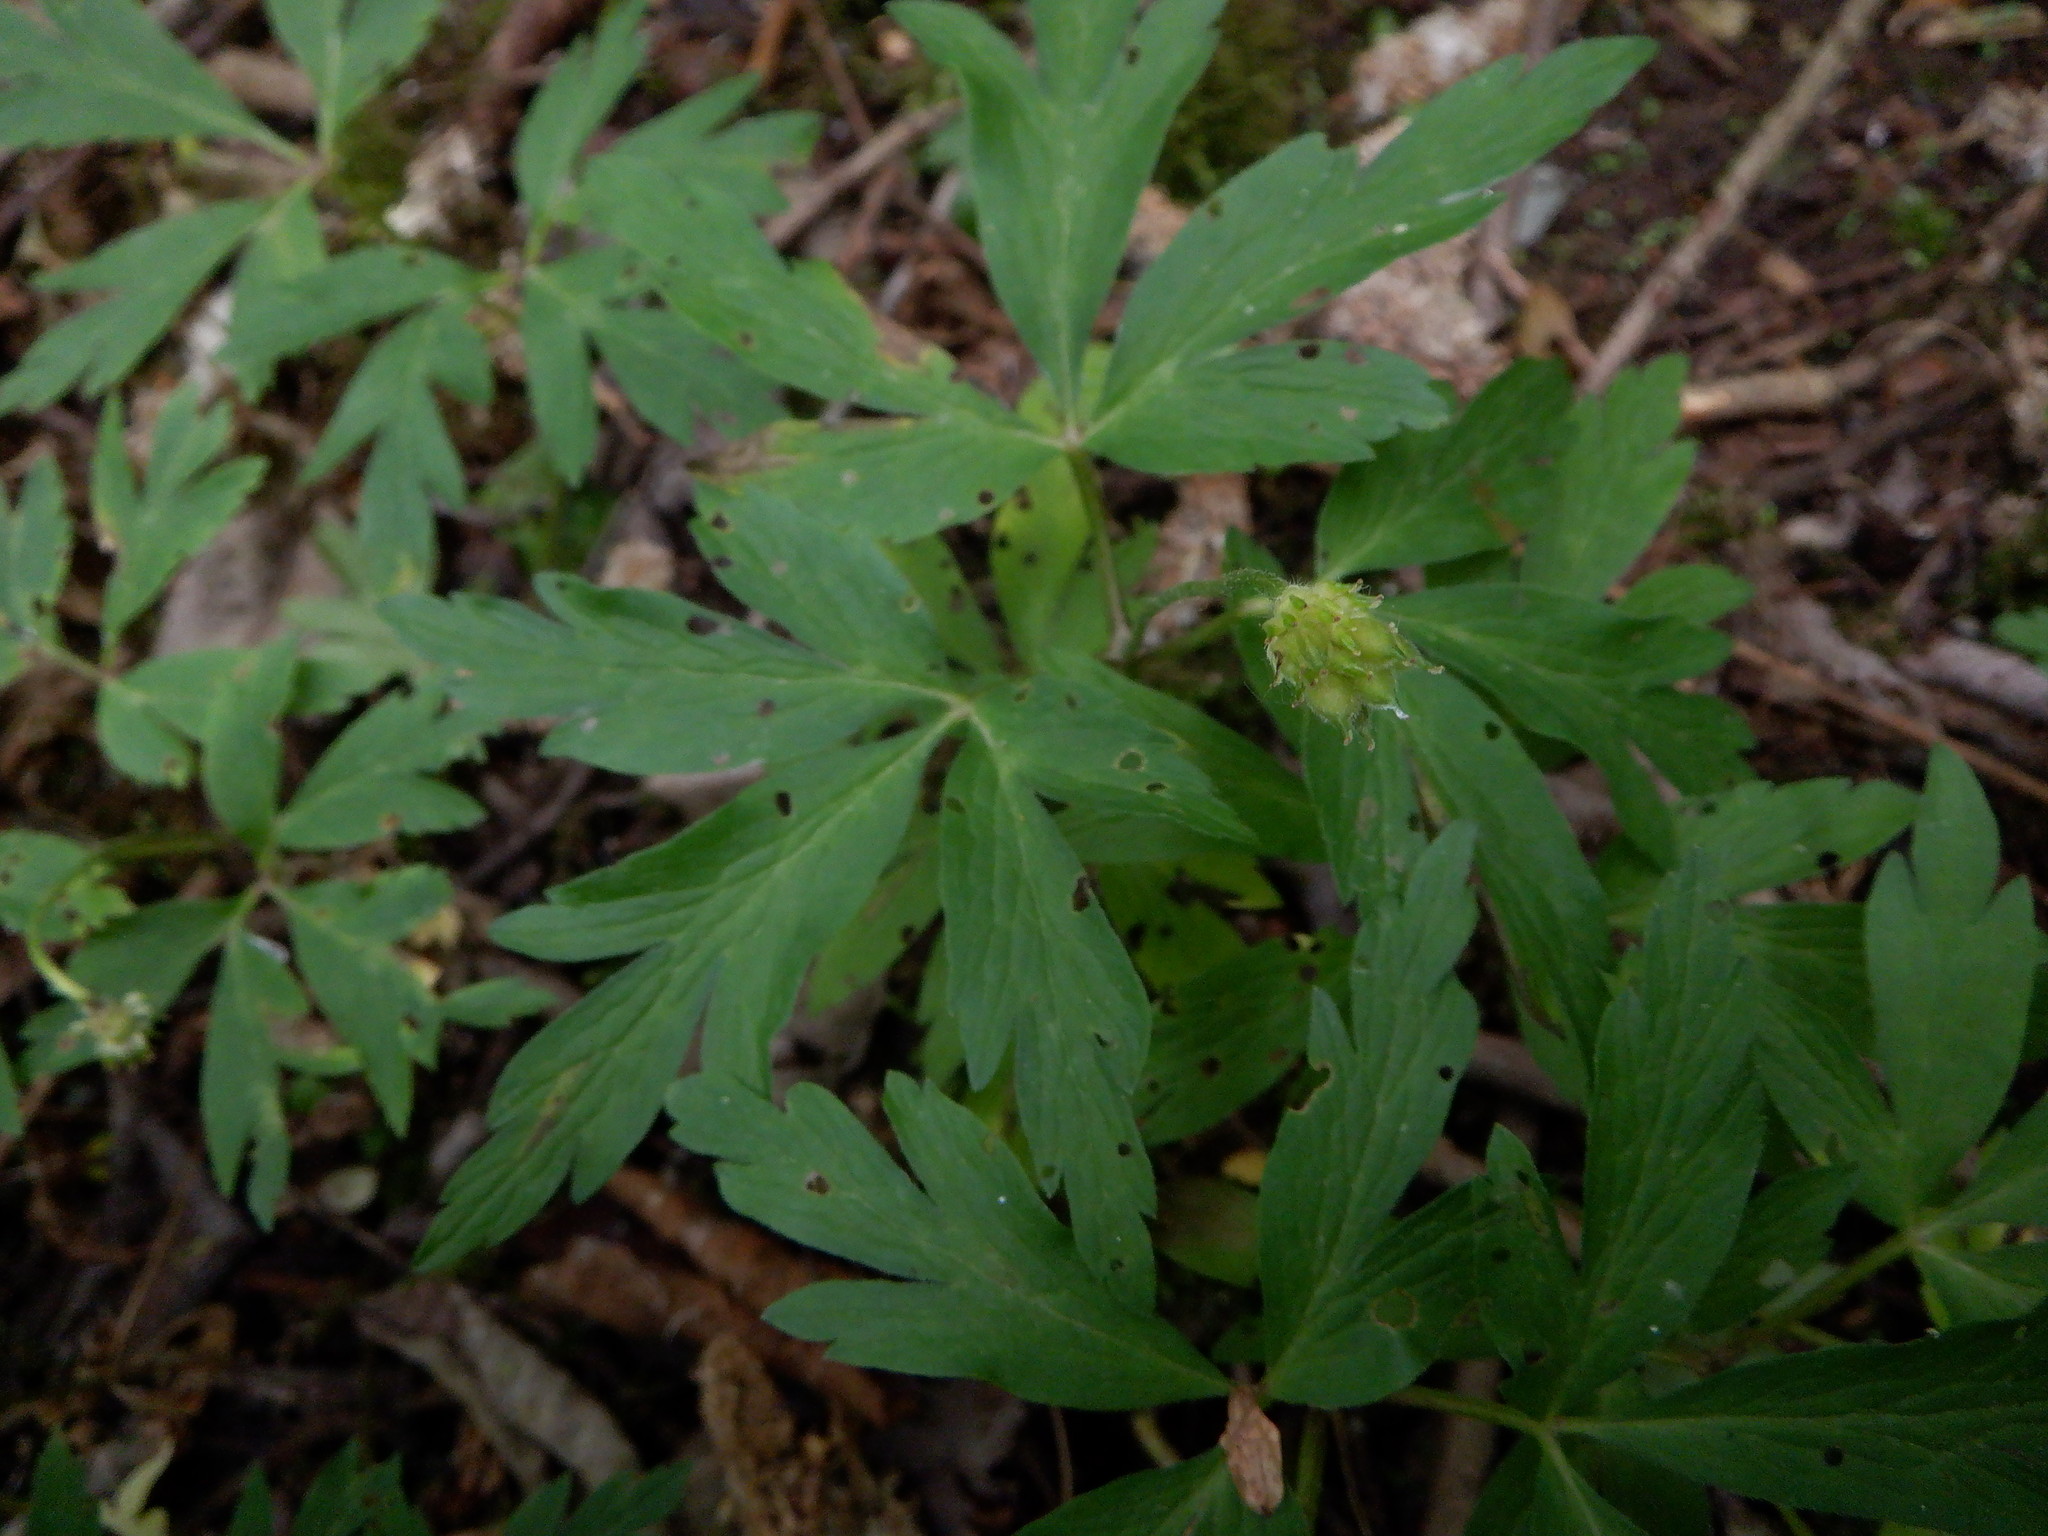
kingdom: Plantae
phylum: Tracheophyta
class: Magnoliopsida
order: Ranunculales
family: Ranunculaceae
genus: Anemone
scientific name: Anemone nemorosa
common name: Wood anemone
